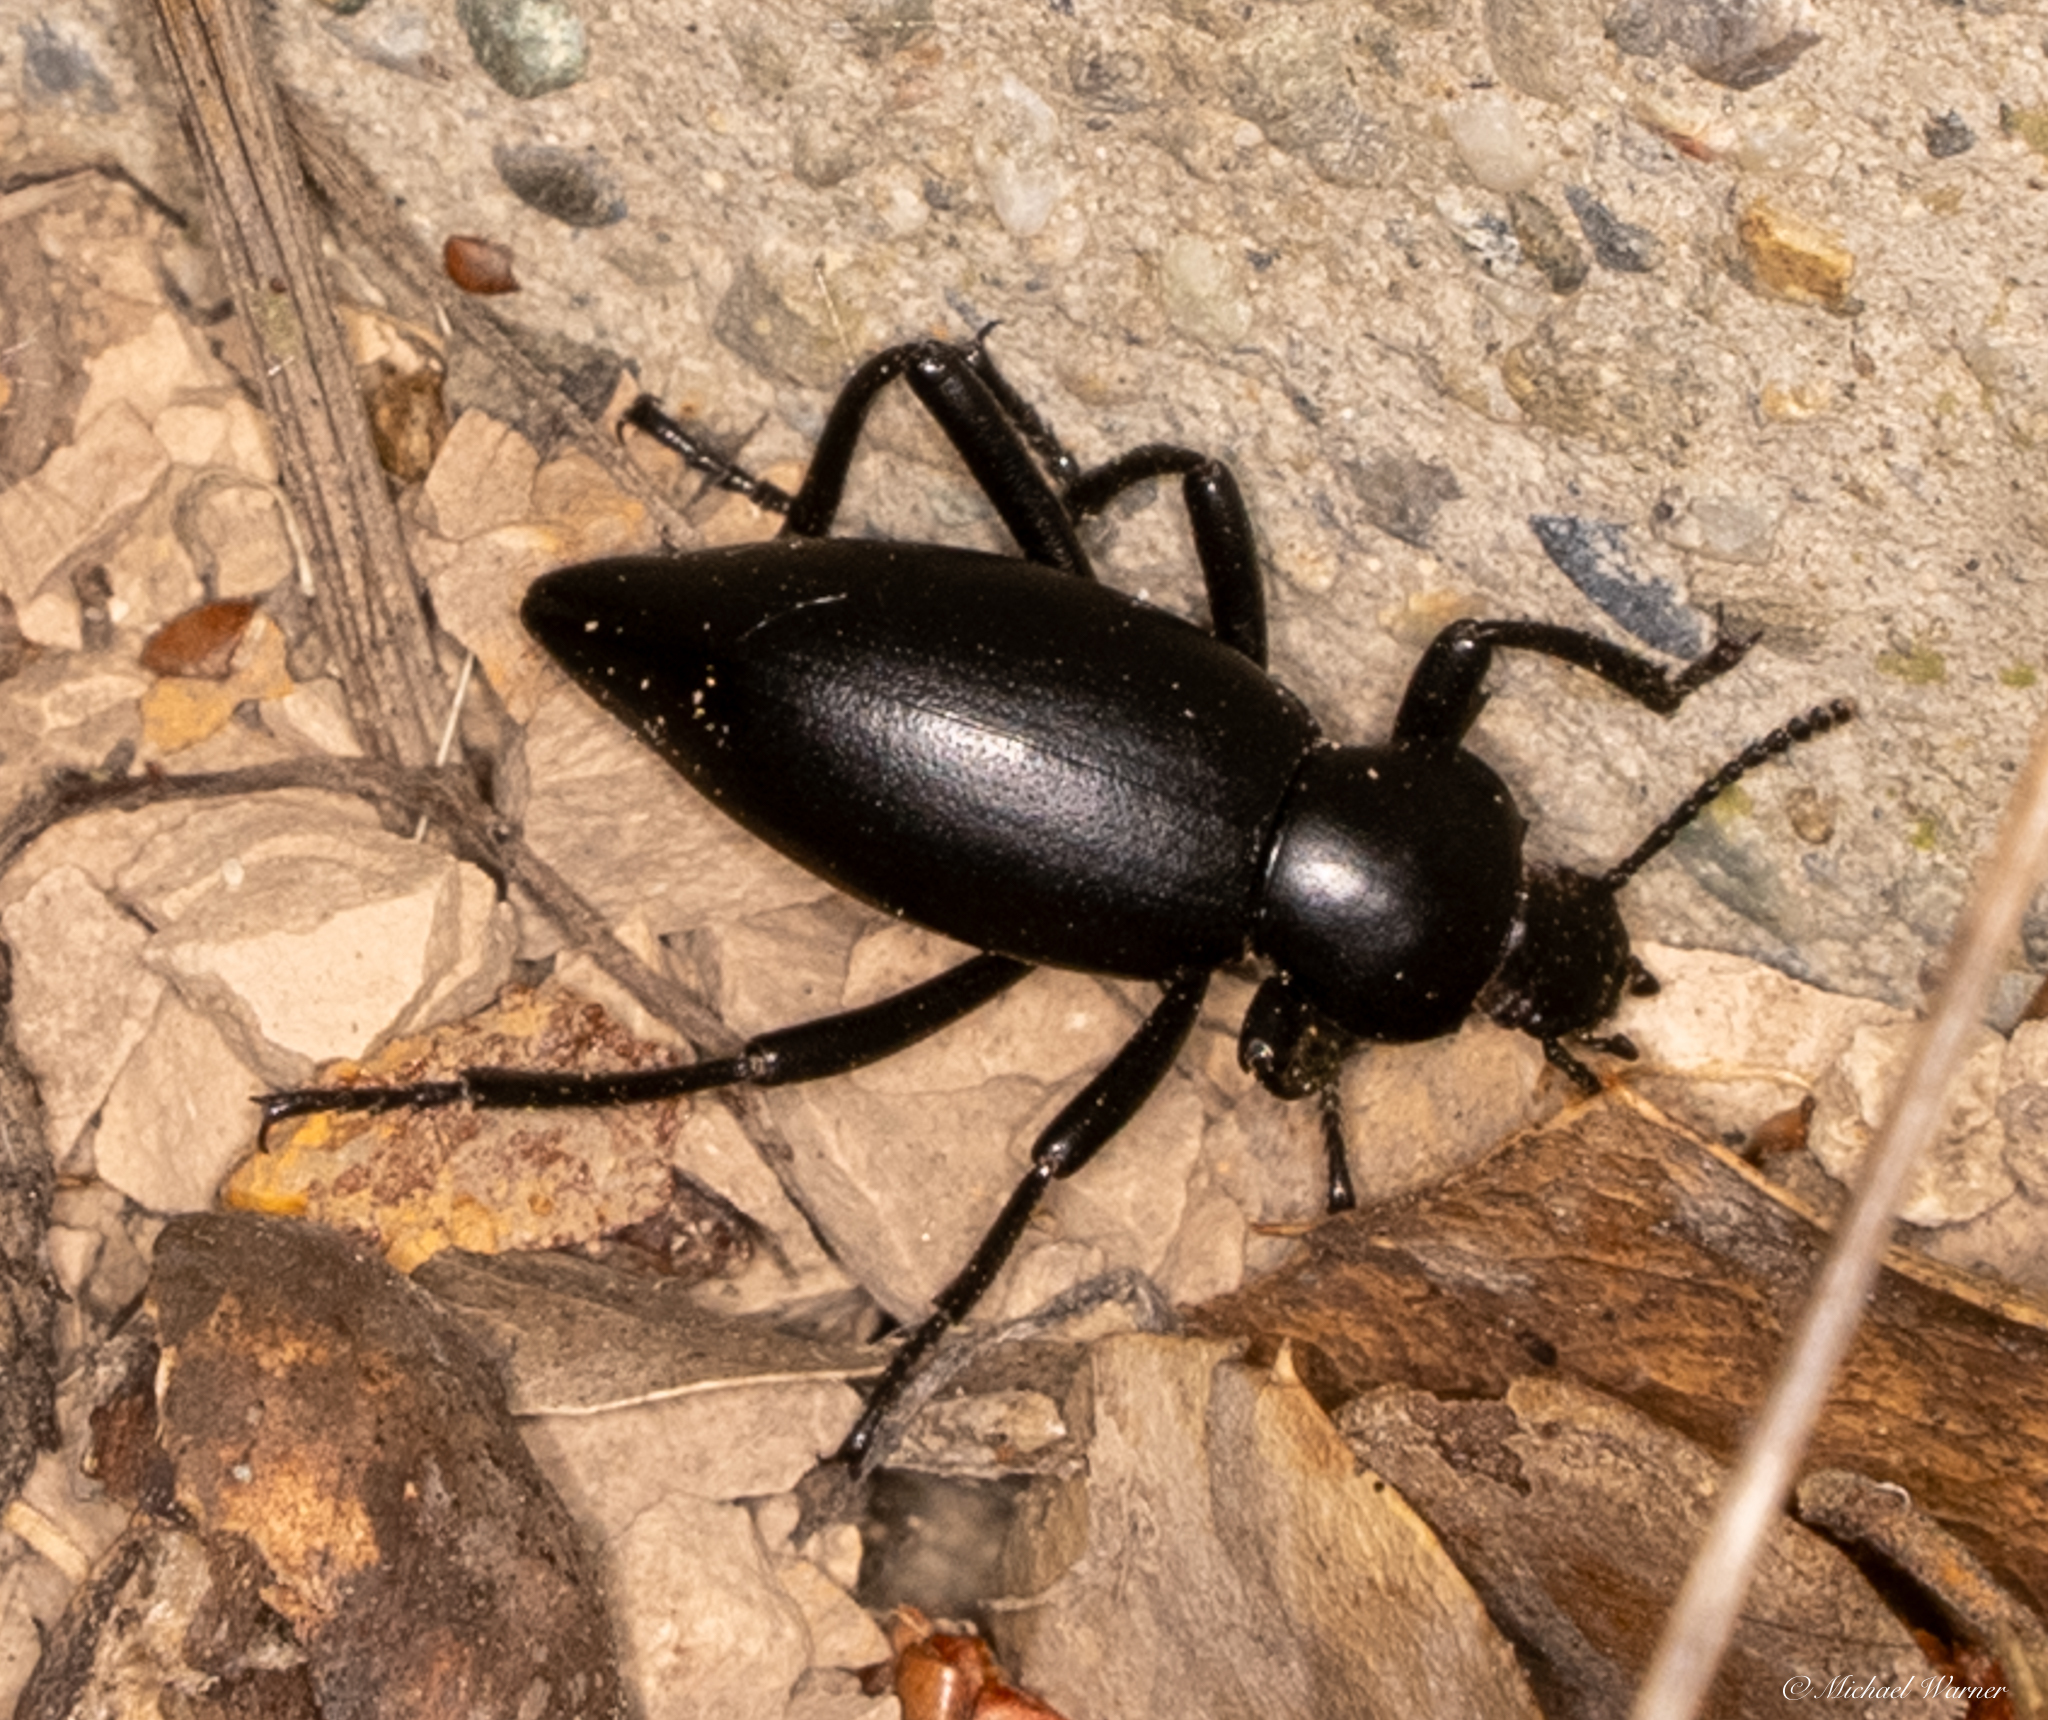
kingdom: Animalia
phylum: Arthropoda
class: Insecta
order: Coleoptera
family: Tenebrionidae
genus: Eleodes
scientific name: Eleodes dentipes
